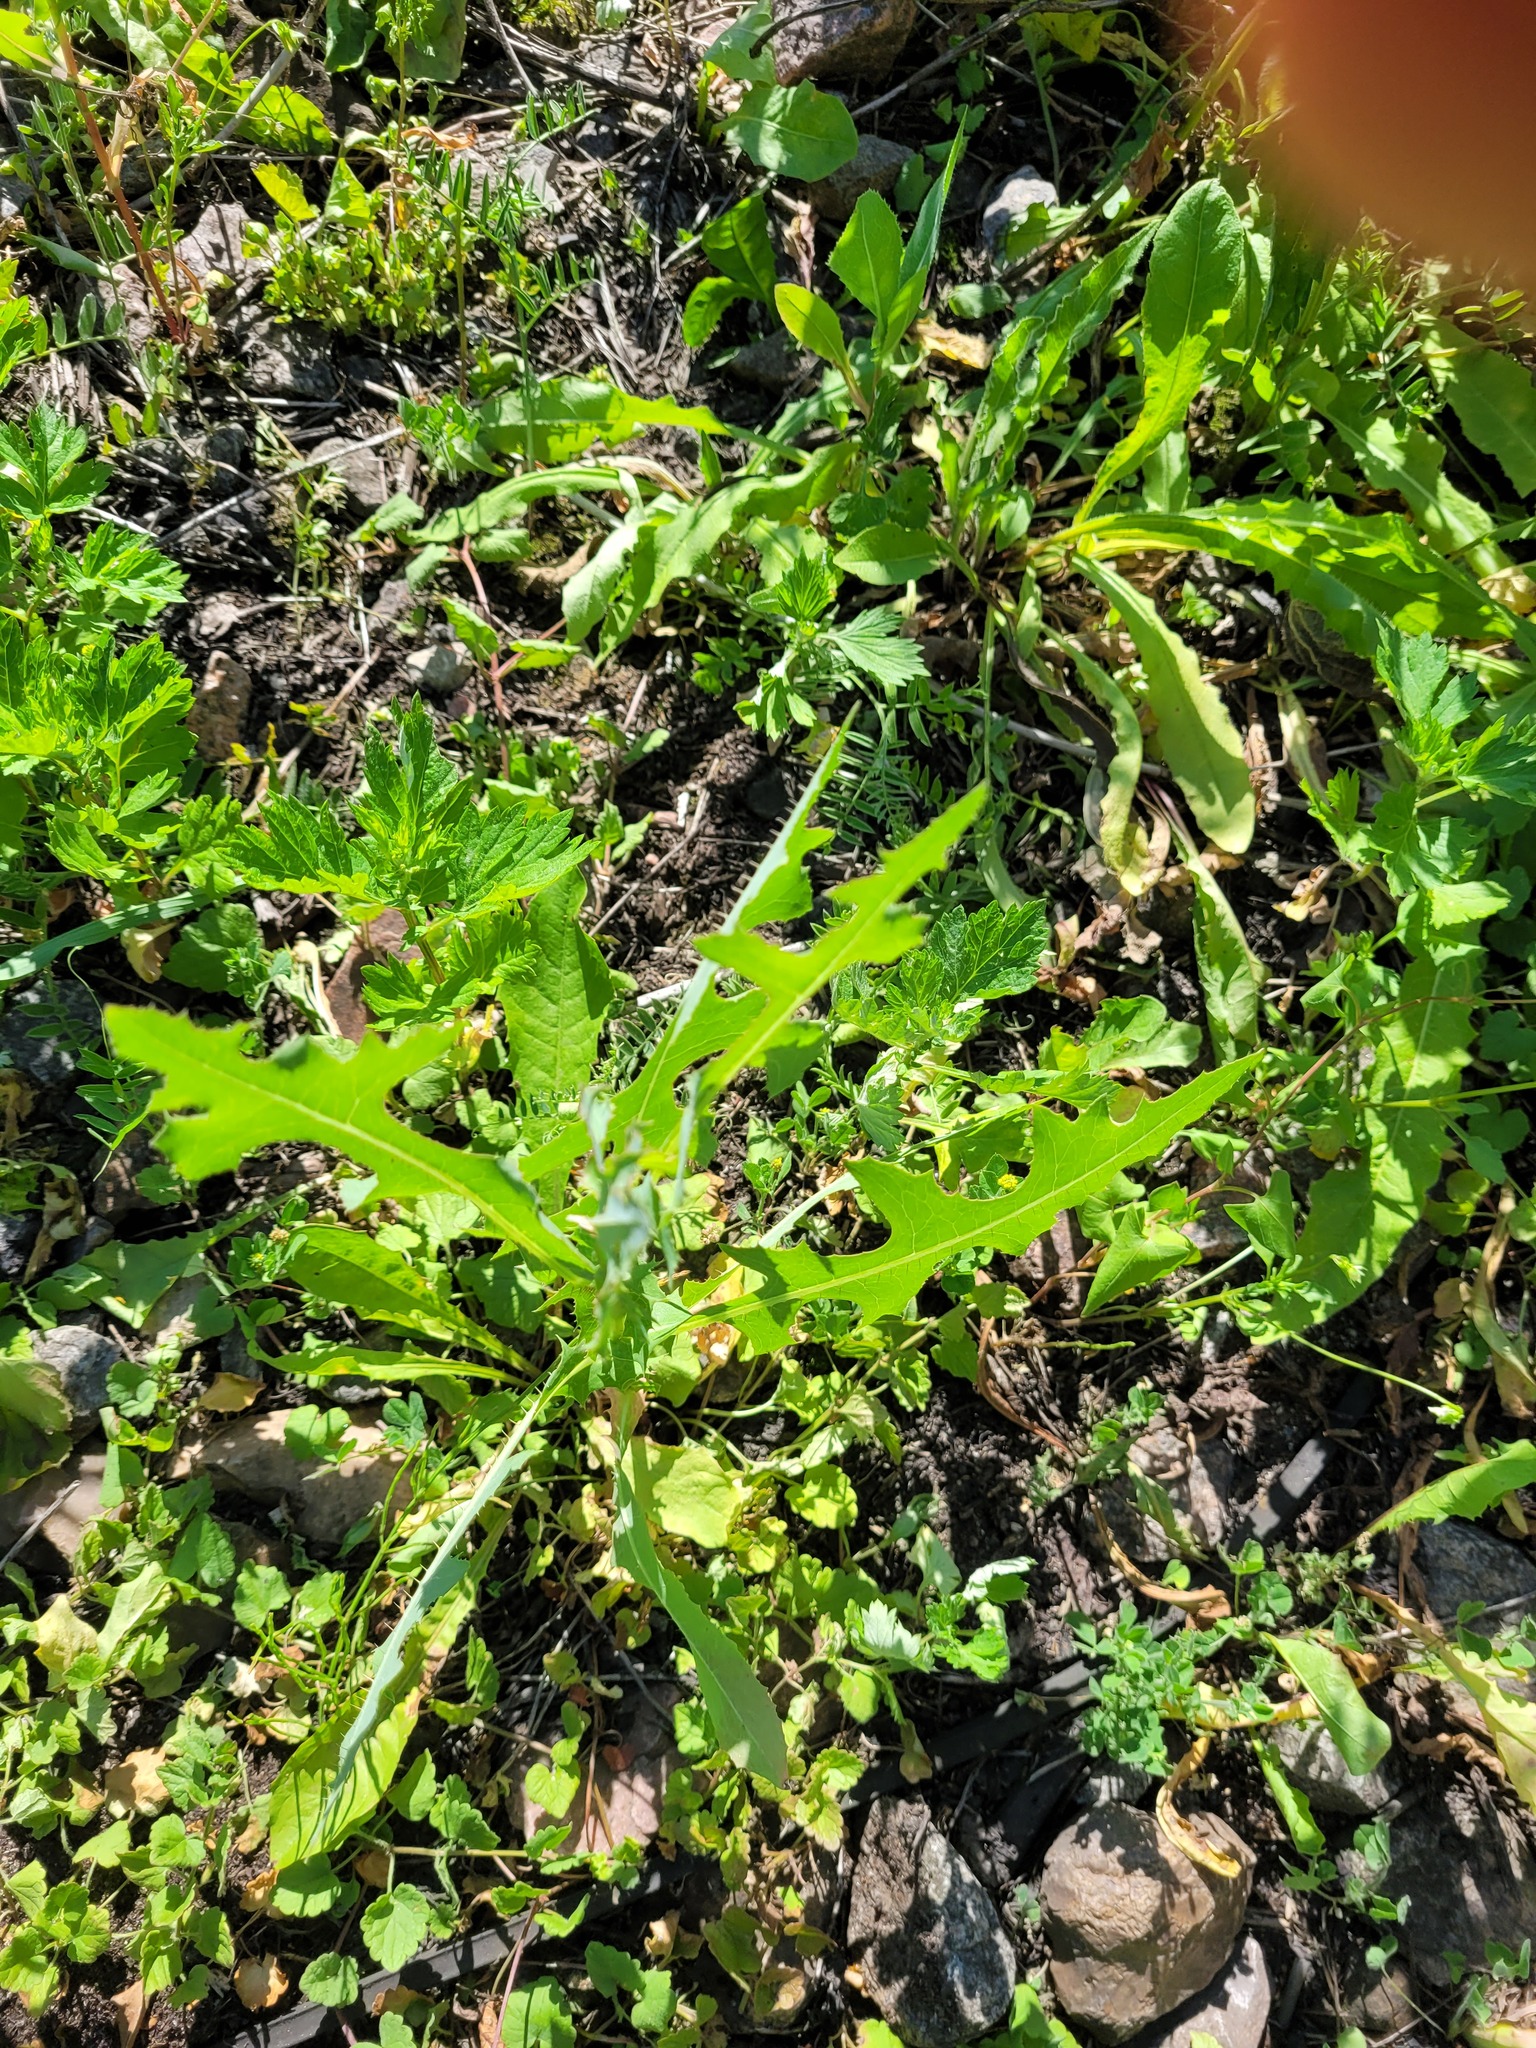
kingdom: Plantae
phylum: Tracheophyta
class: Magnoliopsida
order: Asterales
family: Asteraceae
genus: Lactuca
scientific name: Lactuca serriola
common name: Prickly lettuce
